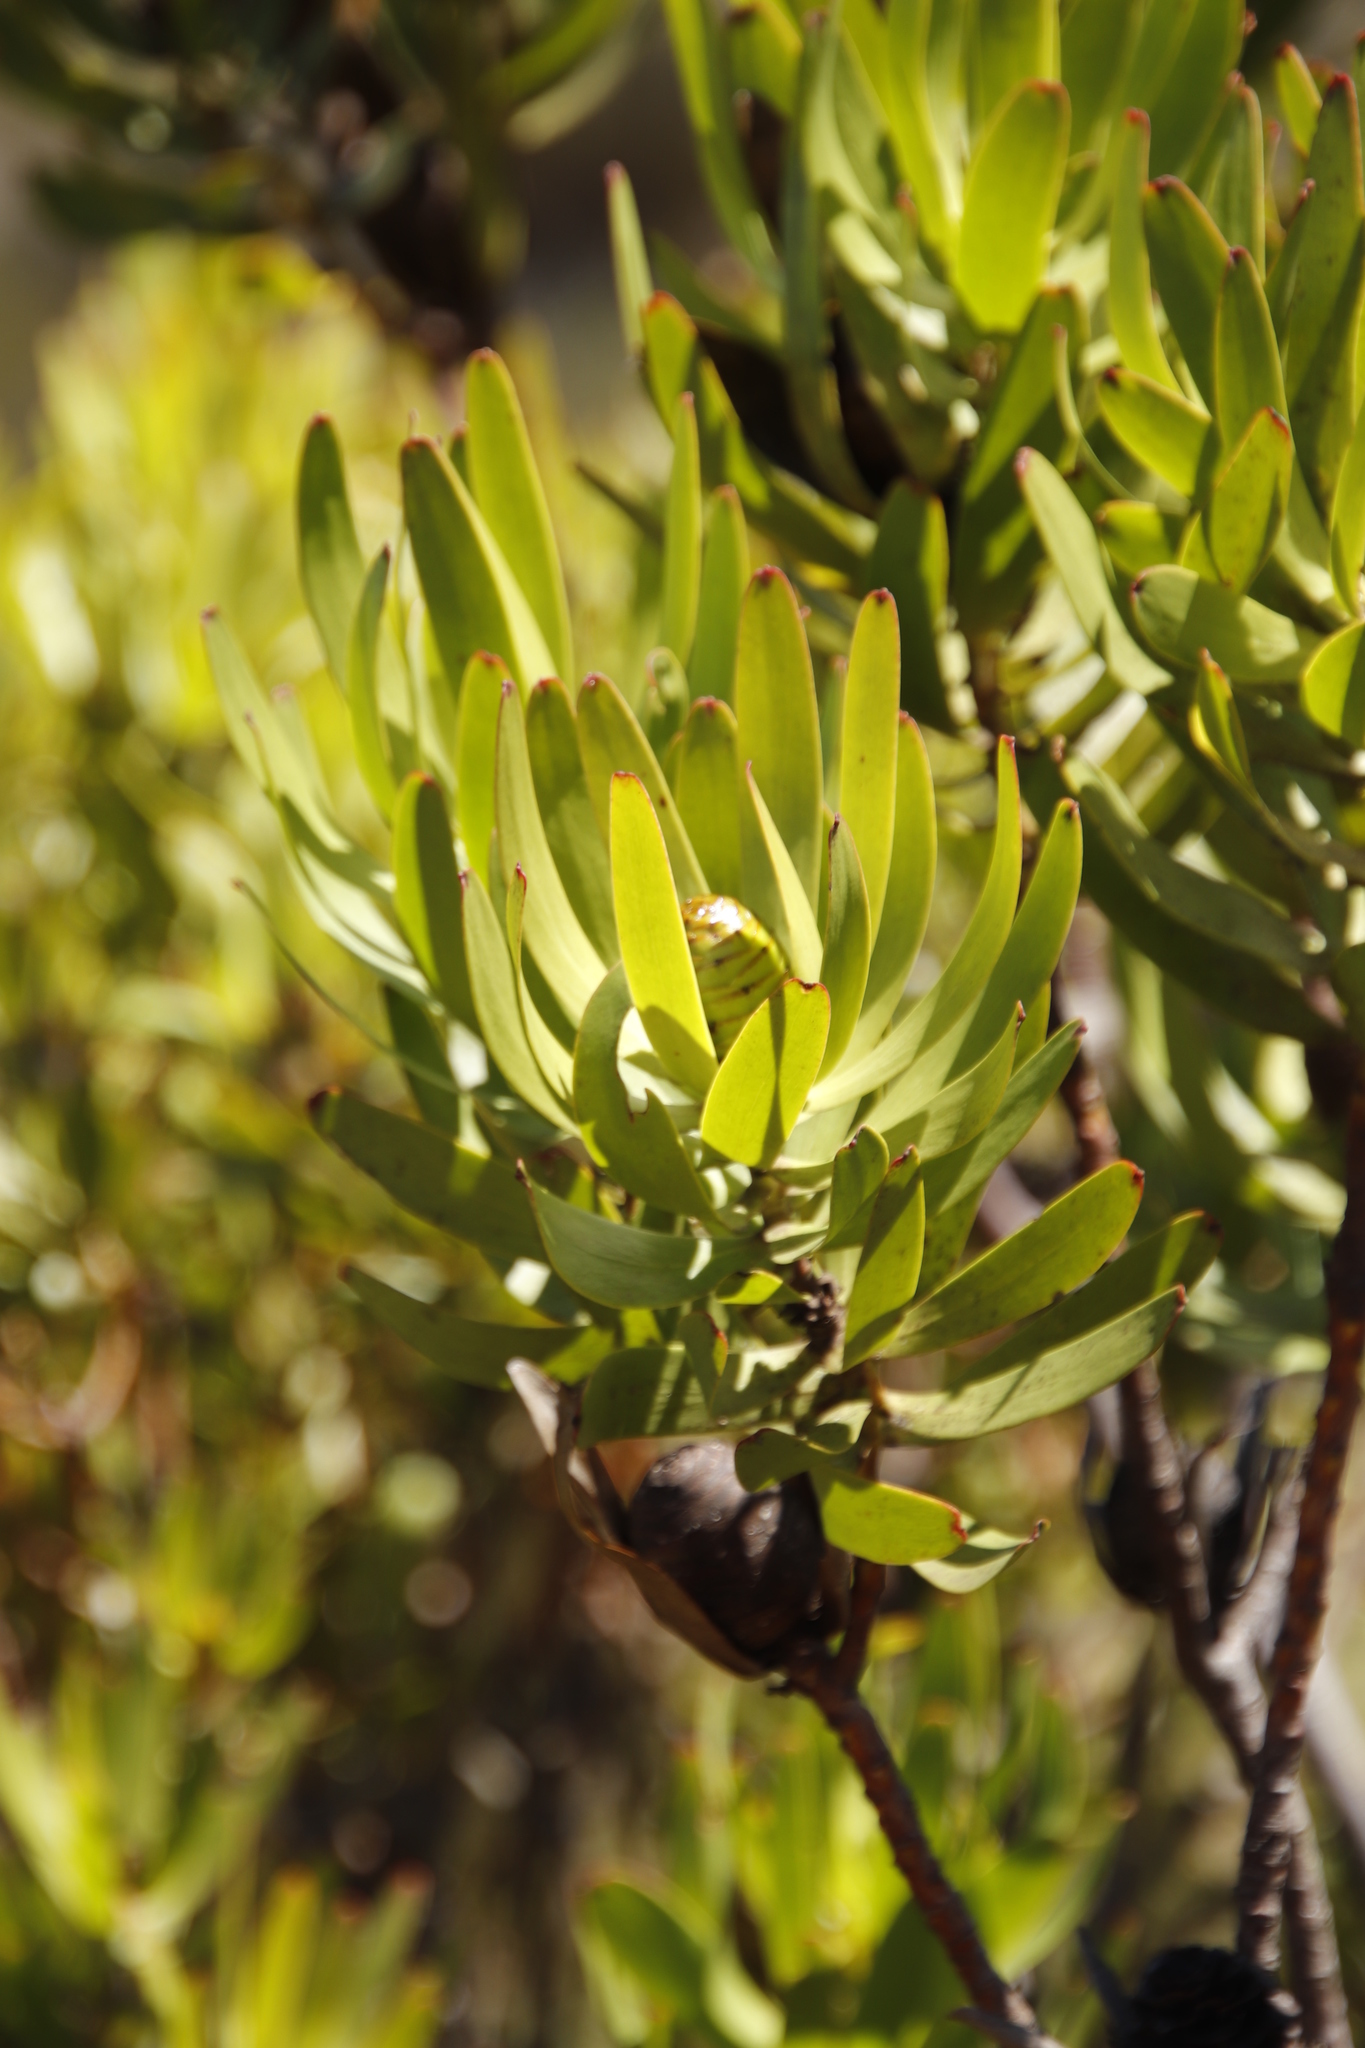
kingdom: Plantae
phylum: Tracheophyta
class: Magnoliopsida
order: Proteales
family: Proteaceae
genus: Leucadendron
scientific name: Leucadendron microcephalum
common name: Oilbract conebush
